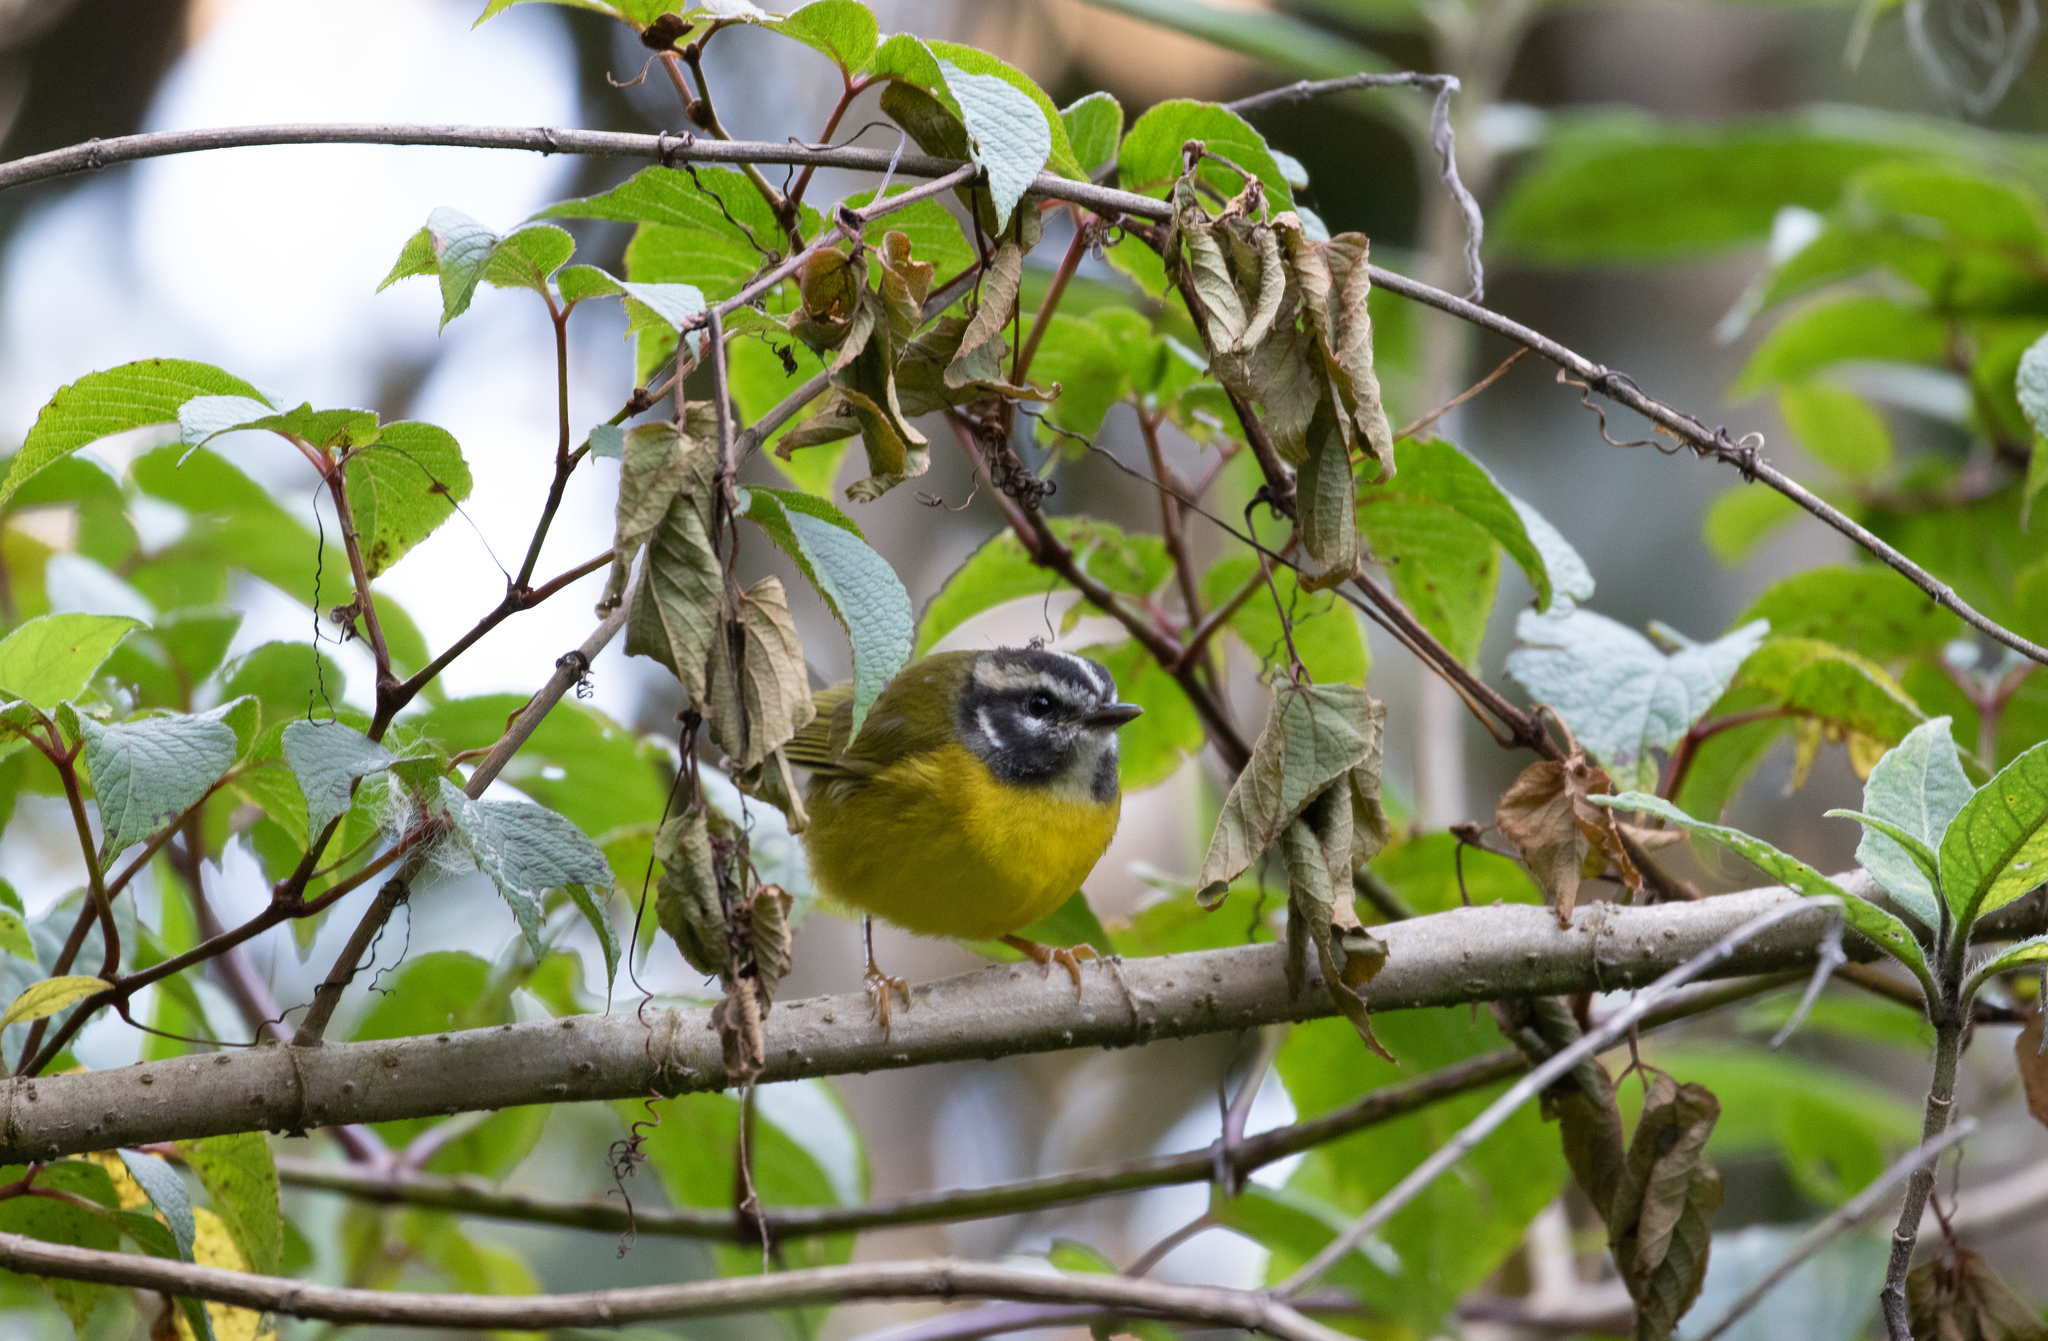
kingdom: Animalia
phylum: Chordata
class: Aves
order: Passeriformes
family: Parulidae
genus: Basileuterus
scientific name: Basileuterus basilicus
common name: Santa marta warbler
